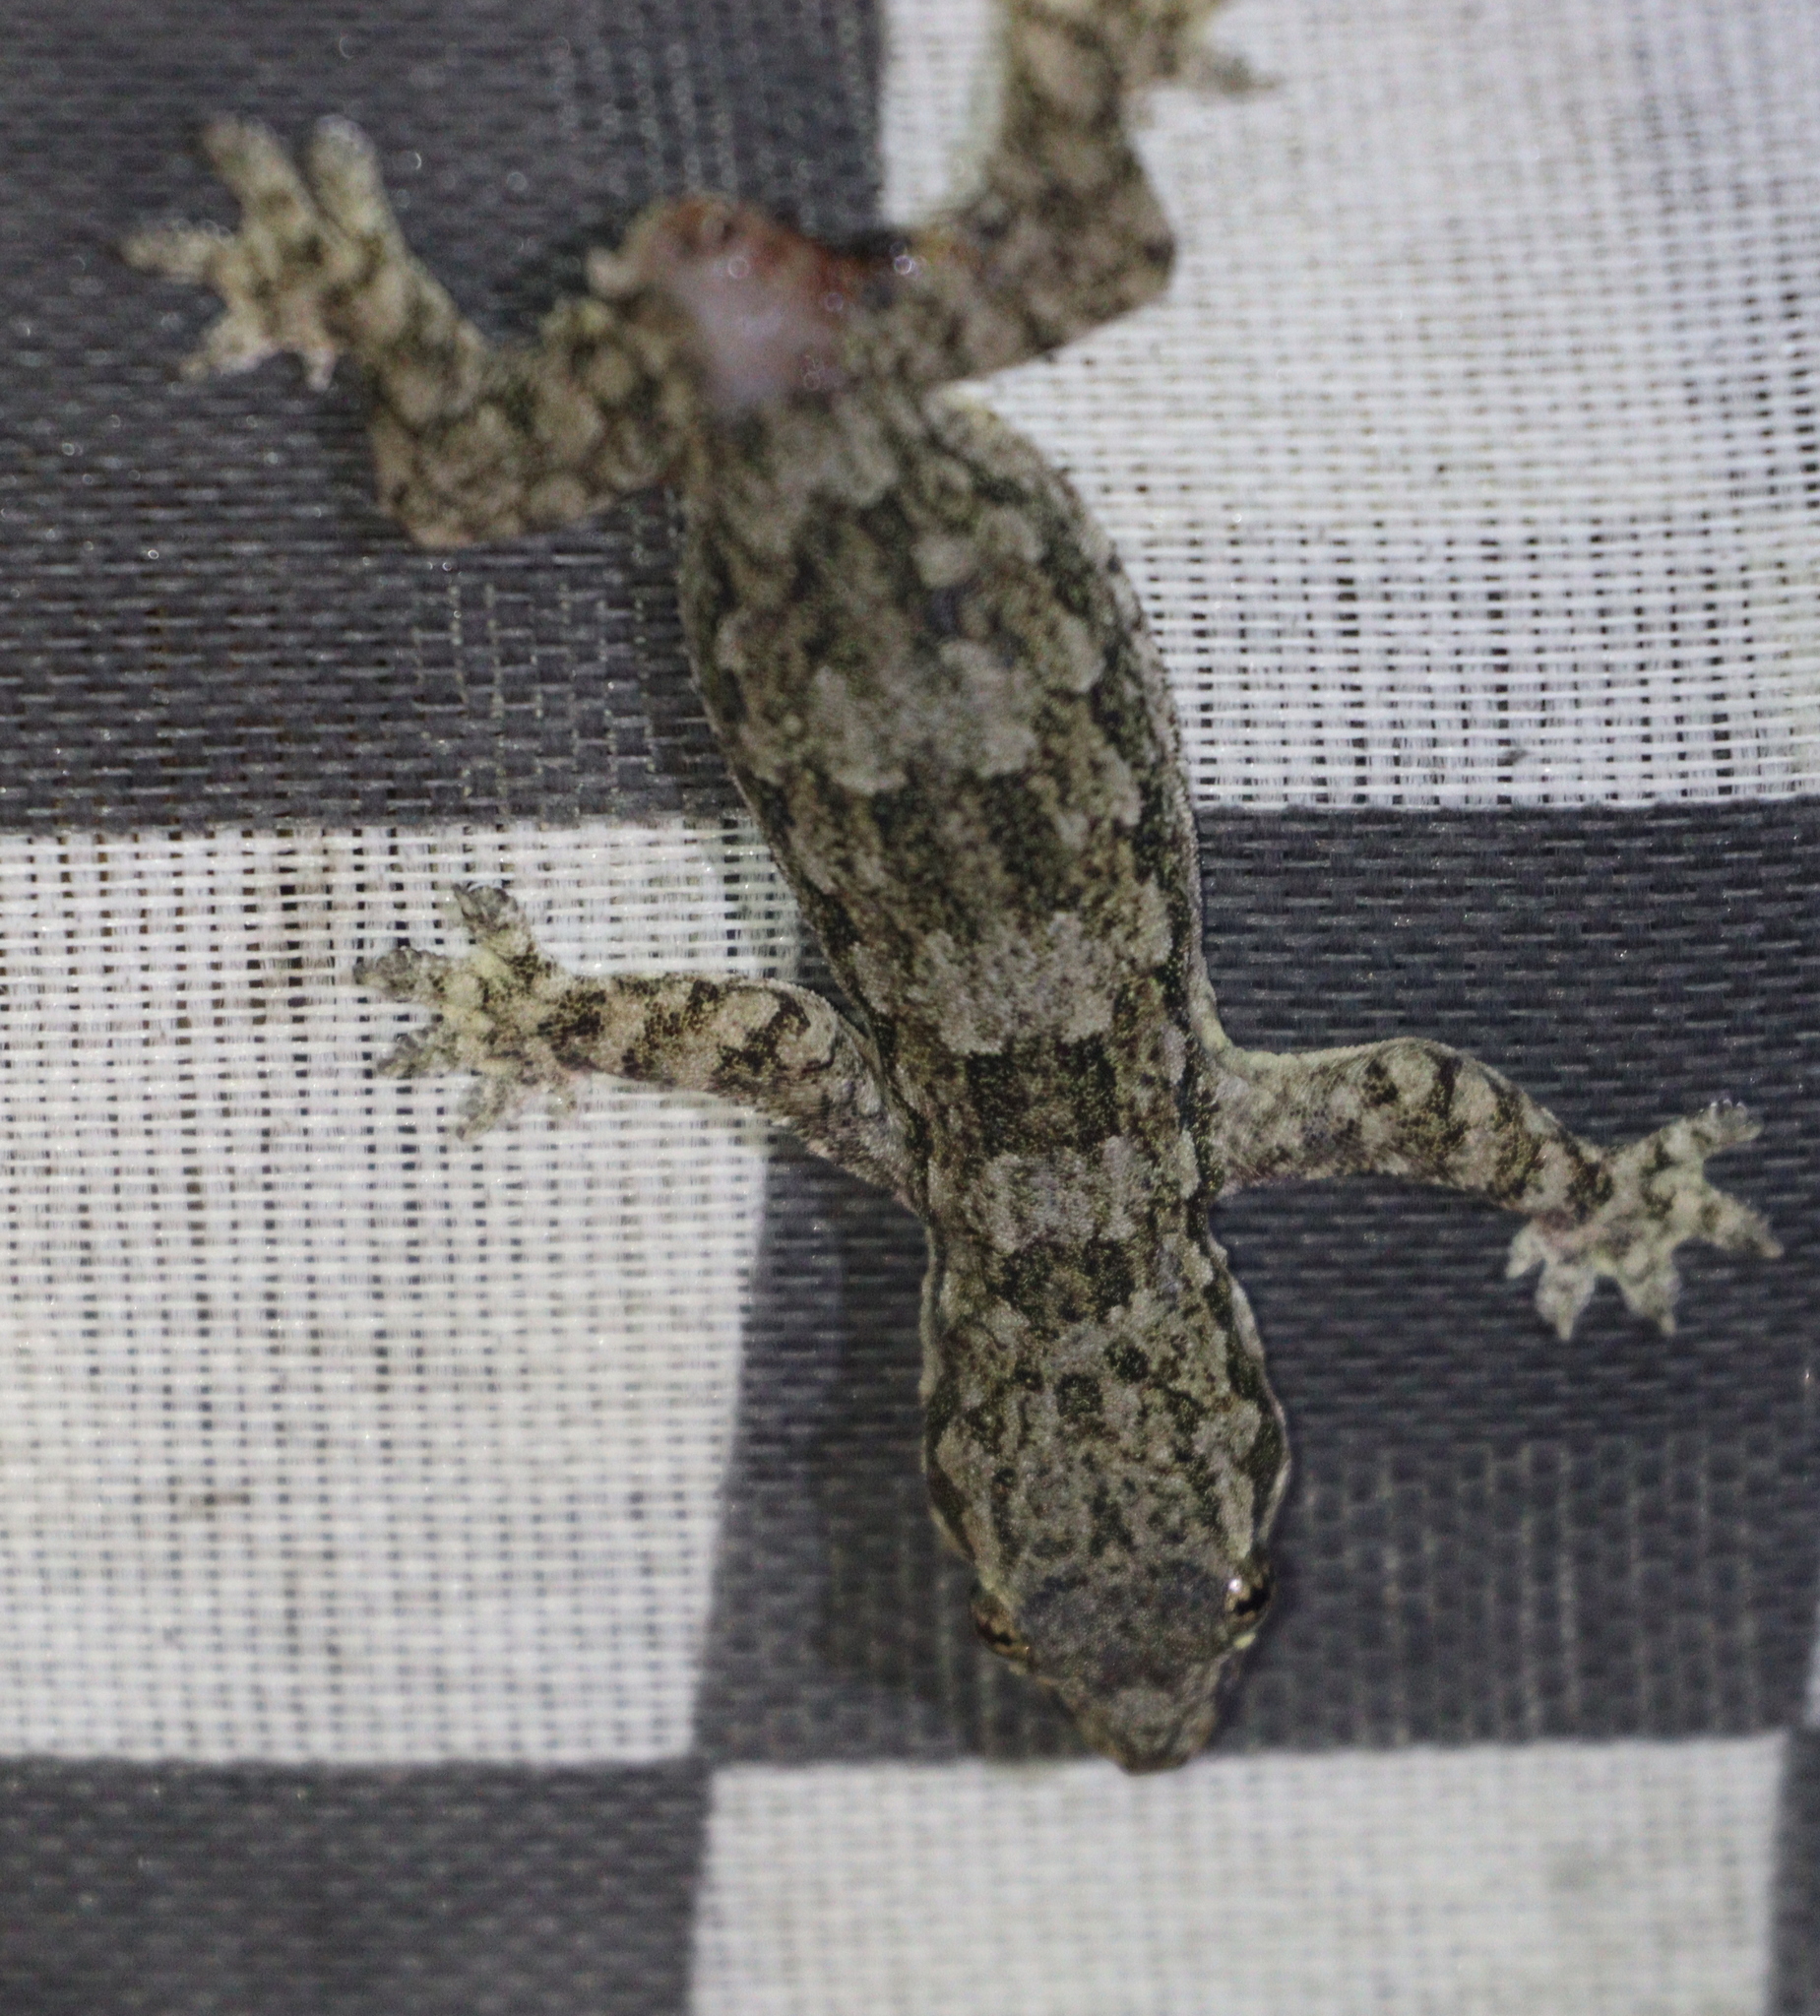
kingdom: Animalia
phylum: Chordata
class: Squamata
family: Gekkonidae
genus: Hemidactylus
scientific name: Hemidactylus platyurus
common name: Flat-tailed house gecko
